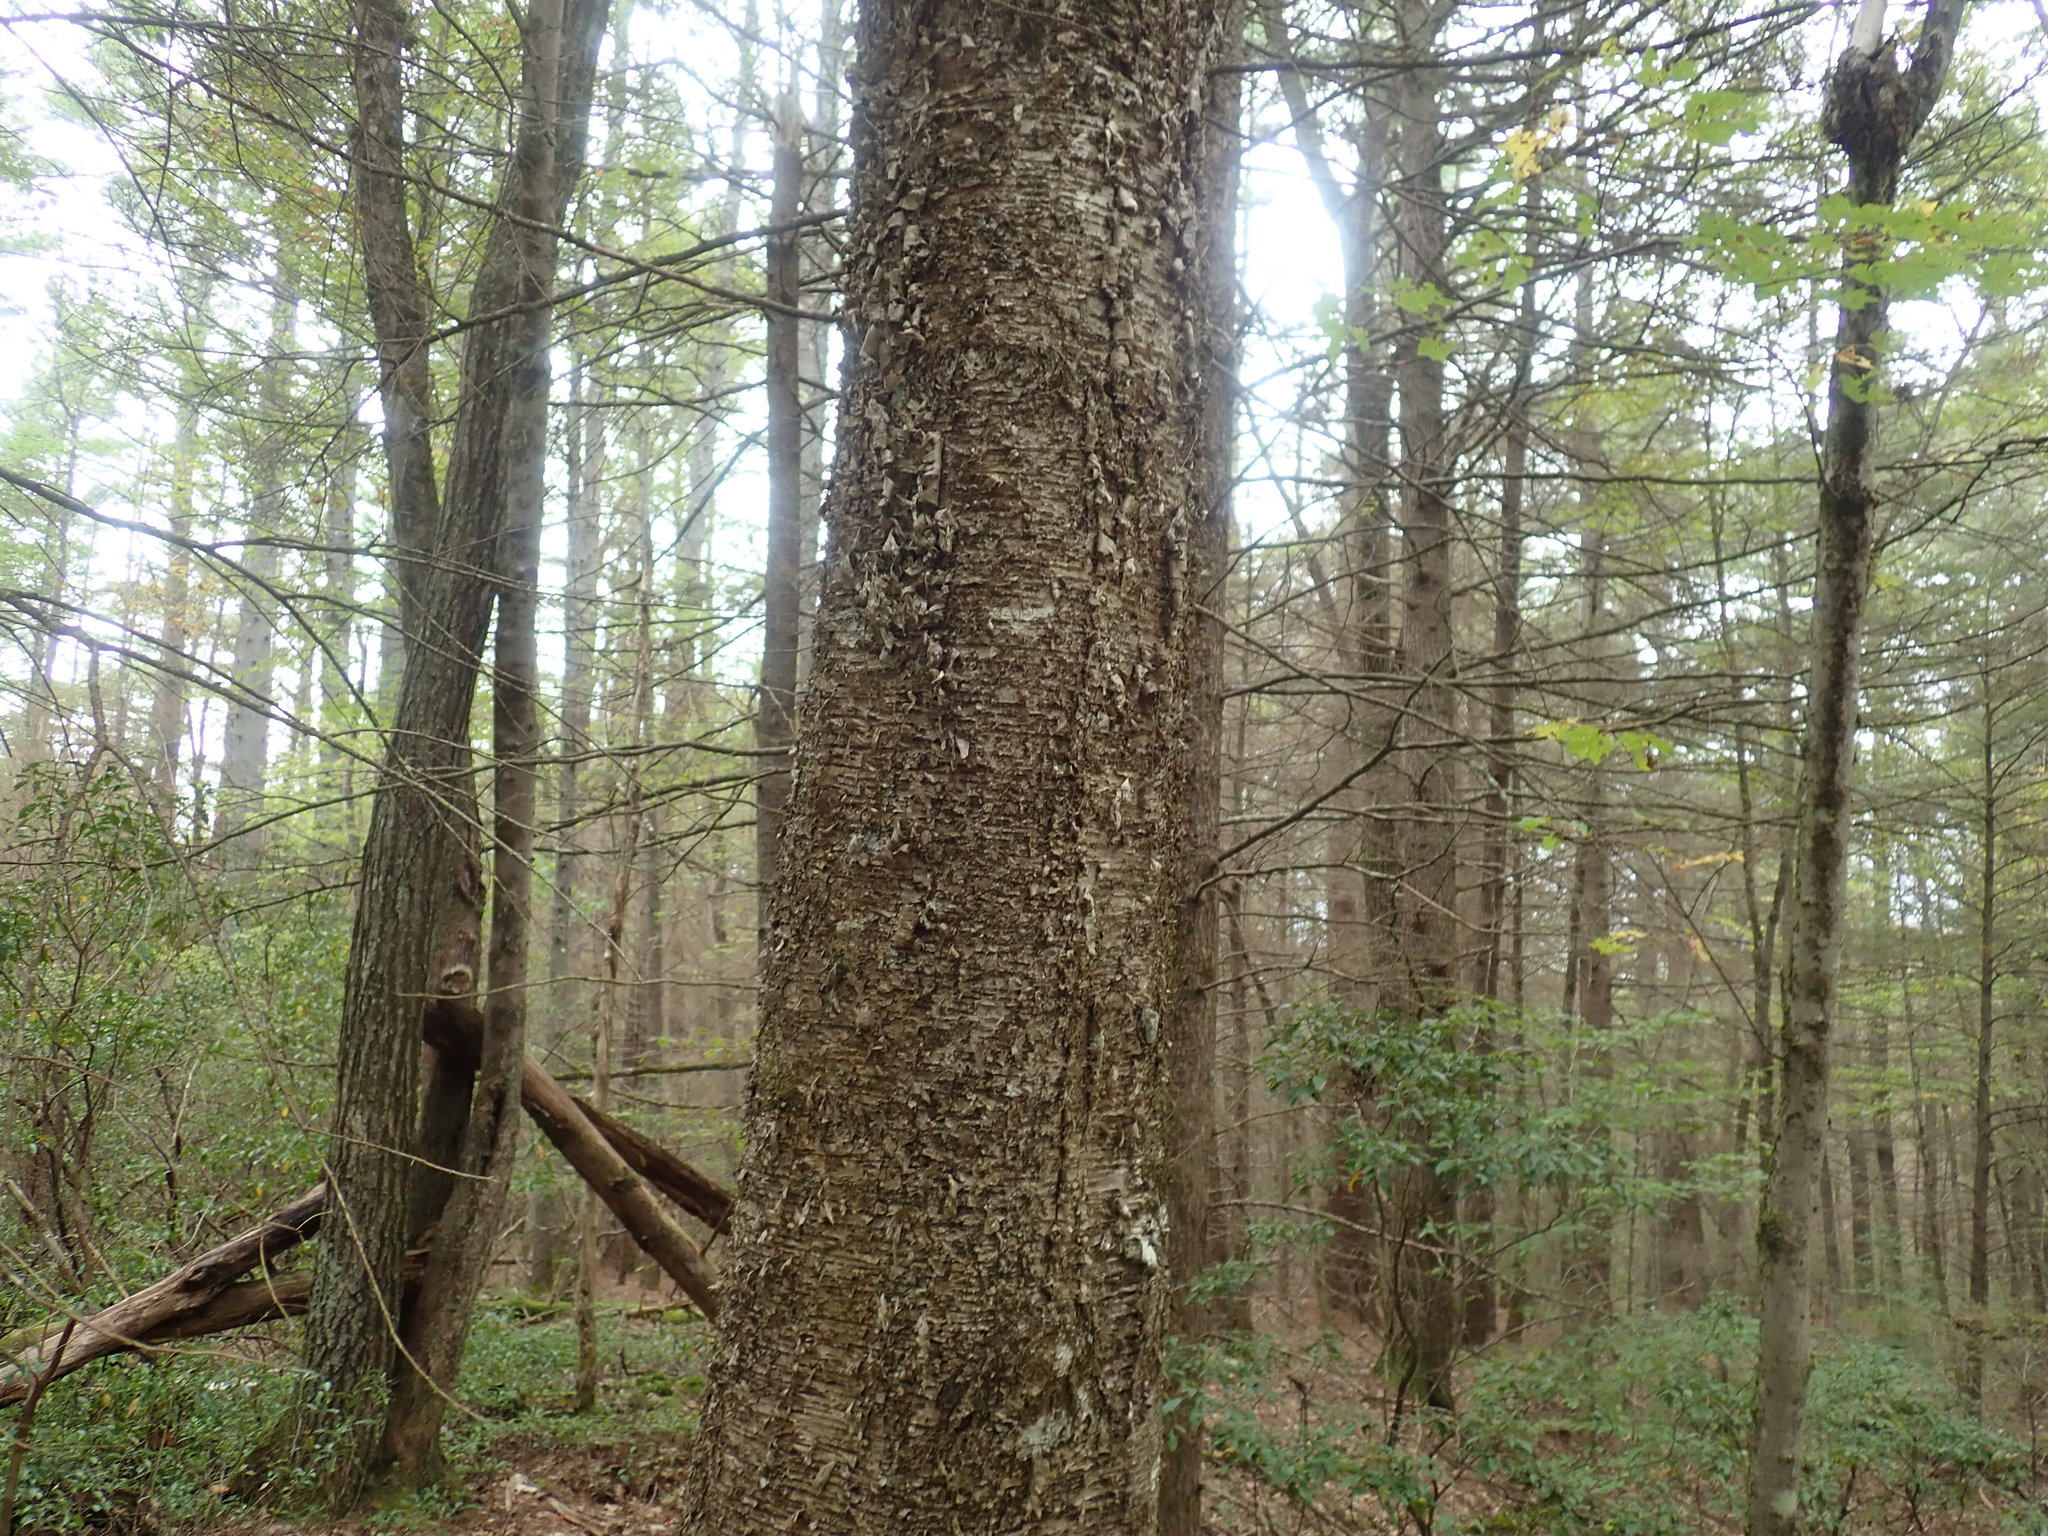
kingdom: Plantae
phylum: Tracheophyta
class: Magnoliopsida
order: Fagales
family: Betulaceae
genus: Betula
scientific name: Betula alleghaniensis
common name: Yellow birch
